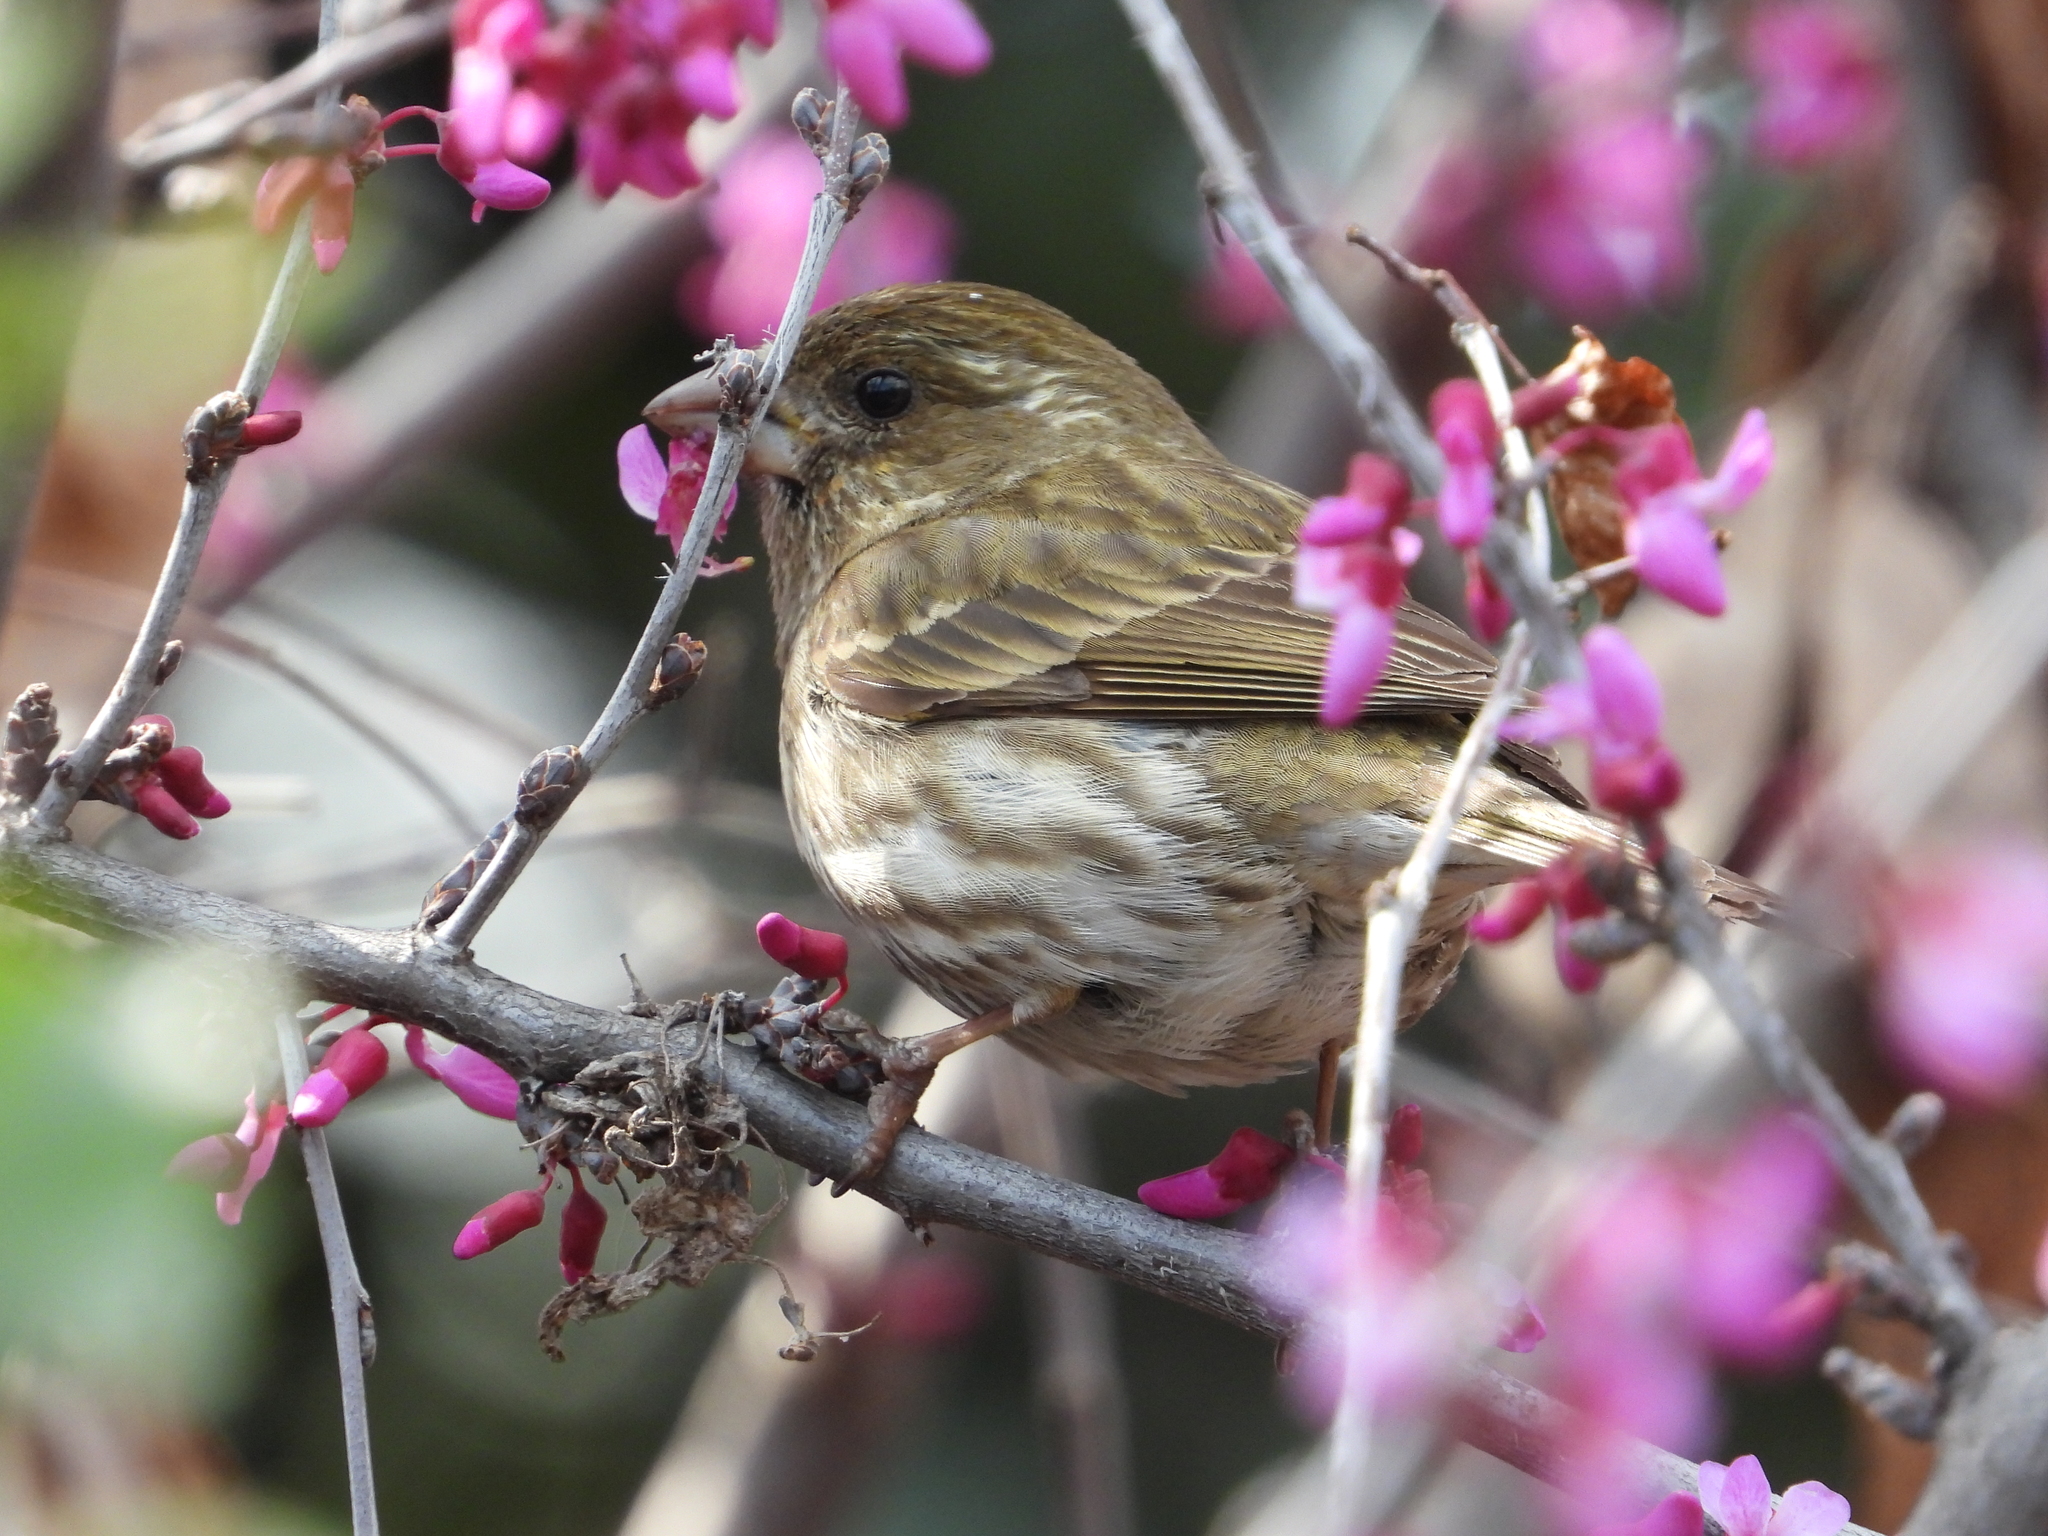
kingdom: Animalia
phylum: Chordata
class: Aves
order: Passeriformes
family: Fringillidae
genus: Haemorhous
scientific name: Haemorhous purpureus
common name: Purple finch
